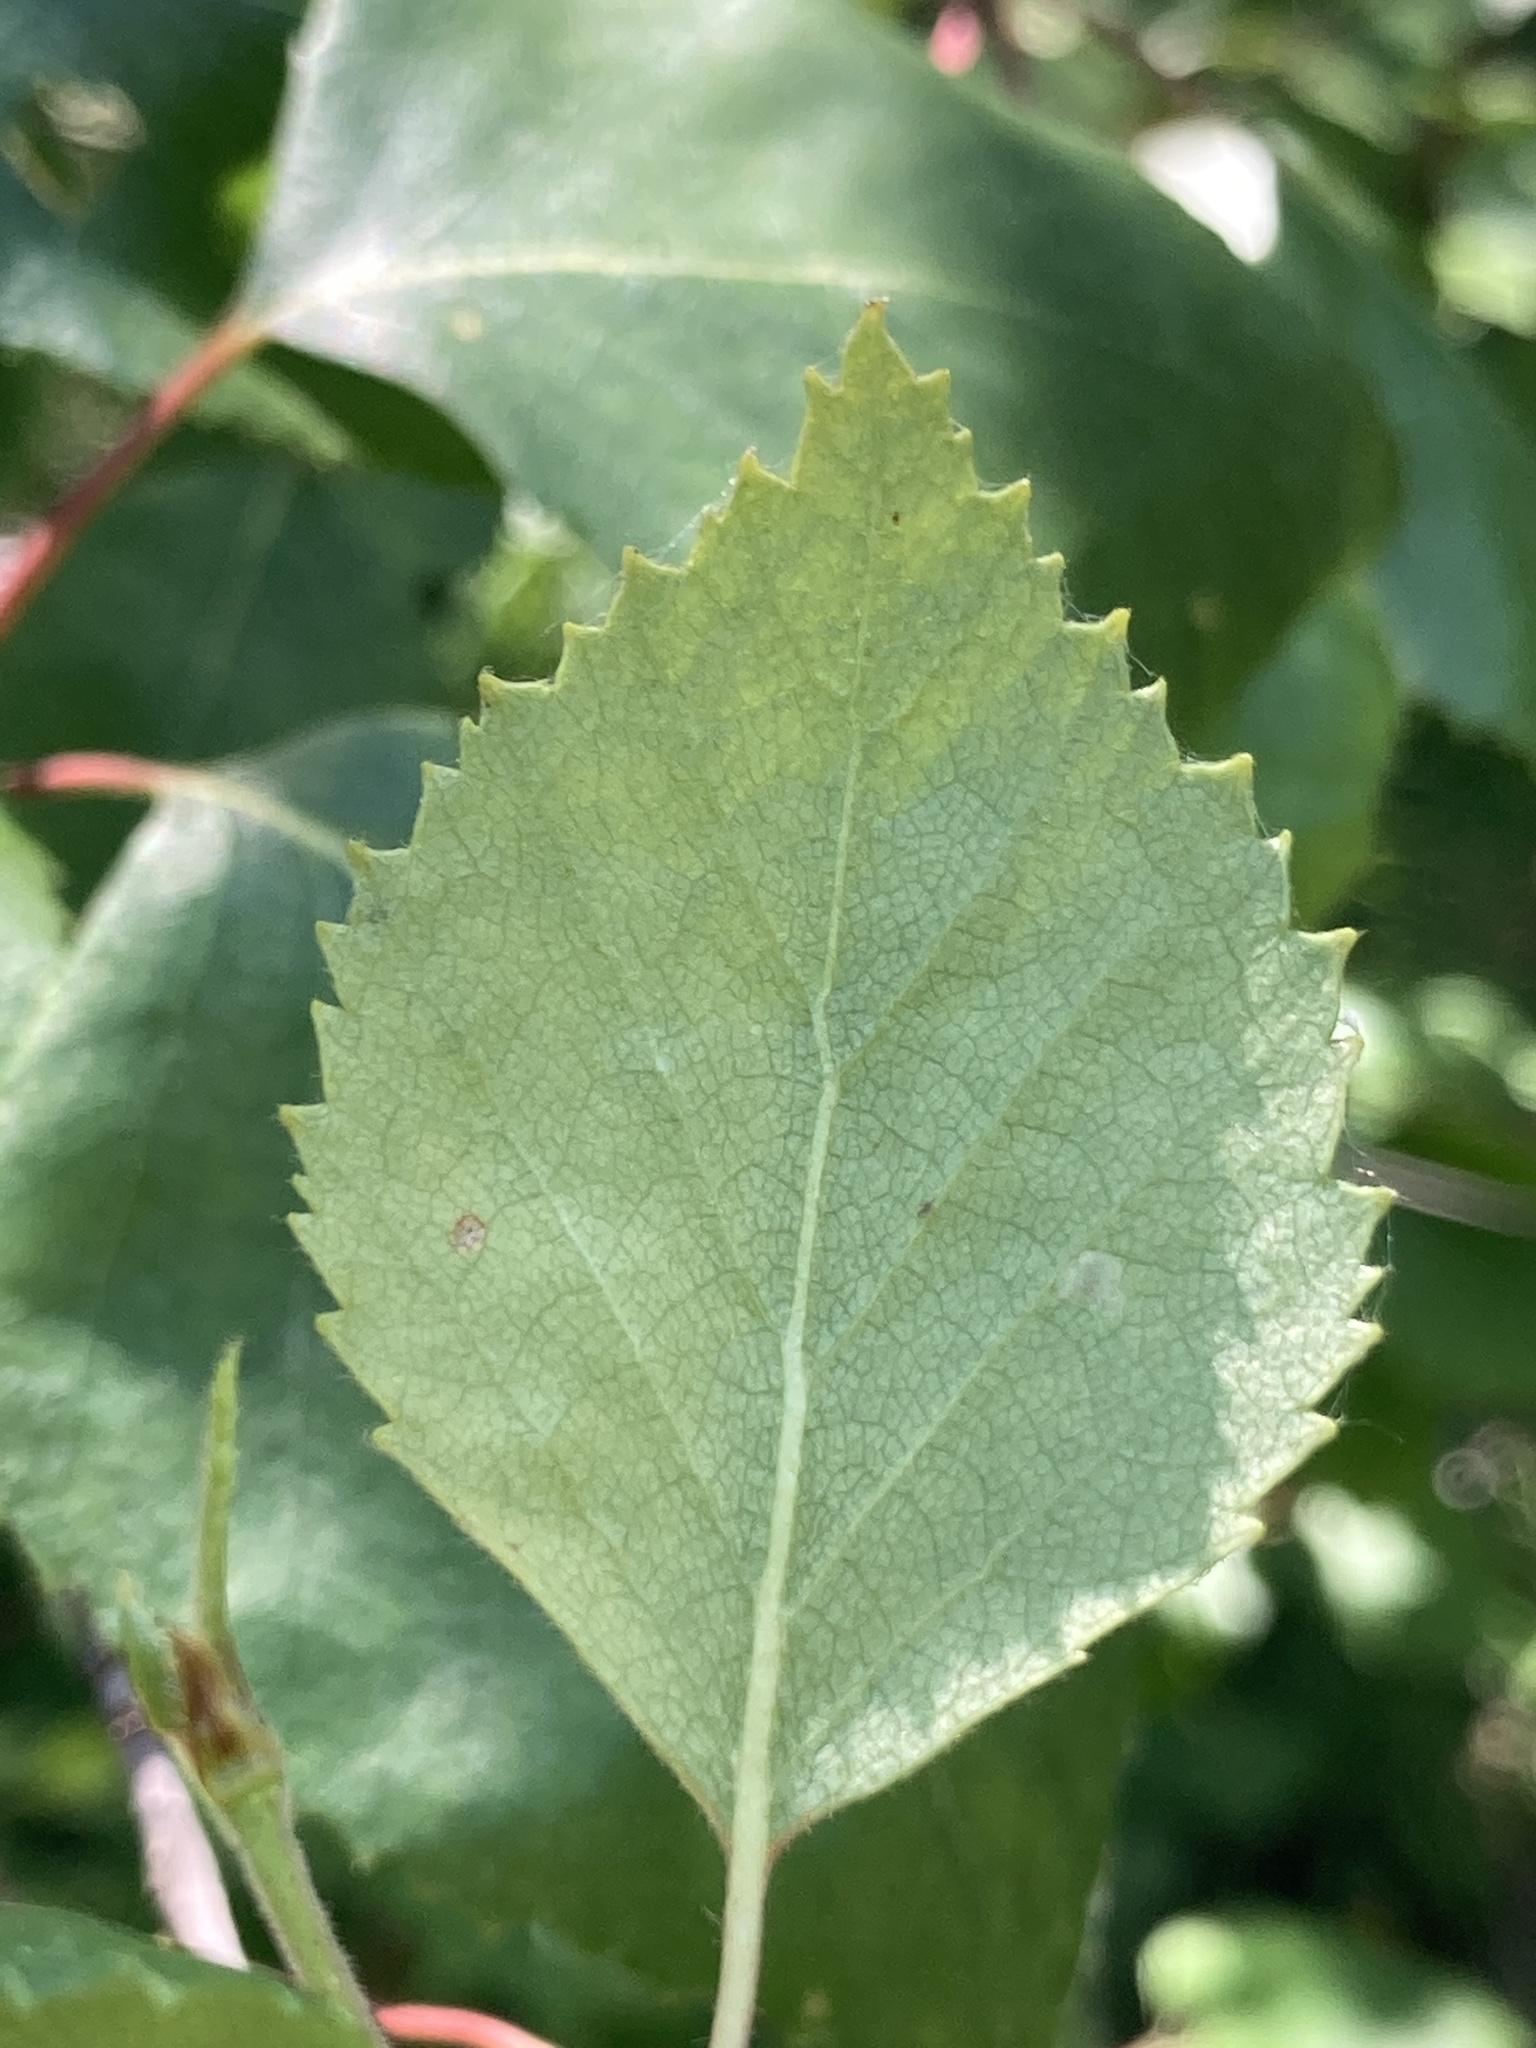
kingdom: Plantae
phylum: Tracheophyta
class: Magnoliopsida
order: Fagales
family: Betulaceae
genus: Betula
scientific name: Betula pubescens
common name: Downy birch
